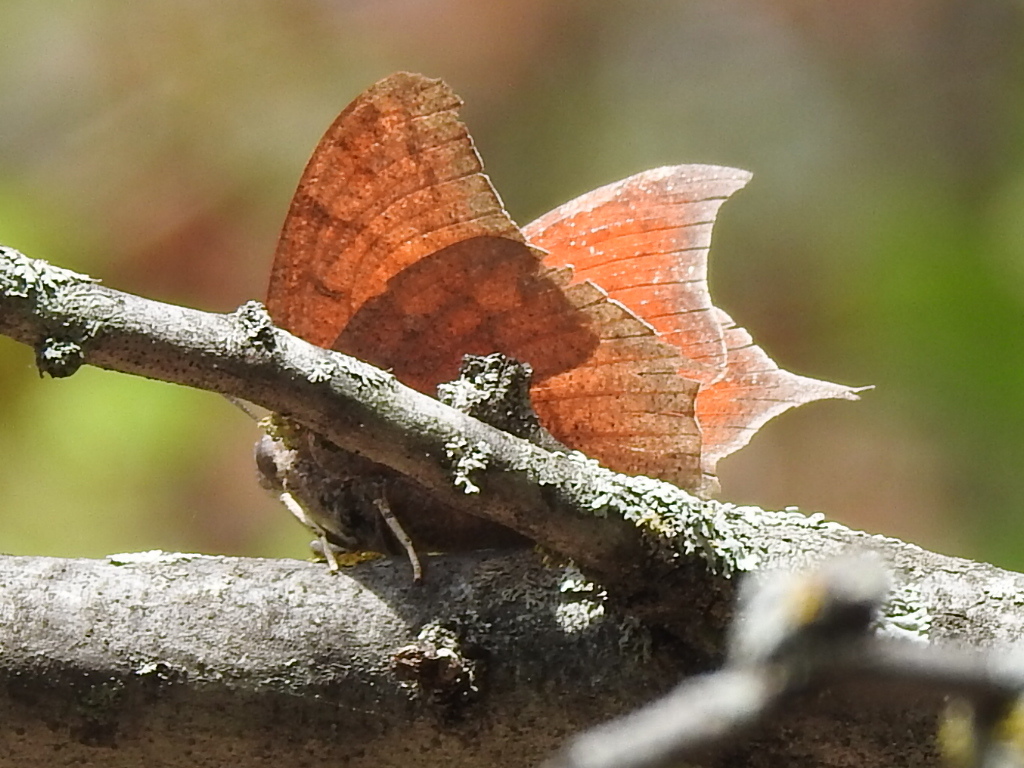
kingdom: Animalia
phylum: Arthropoda
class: Insecta
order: Lepidoptera
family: Nymphalidae
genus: Anaea
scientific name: Anaea andria
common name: Goatweed leafwing
